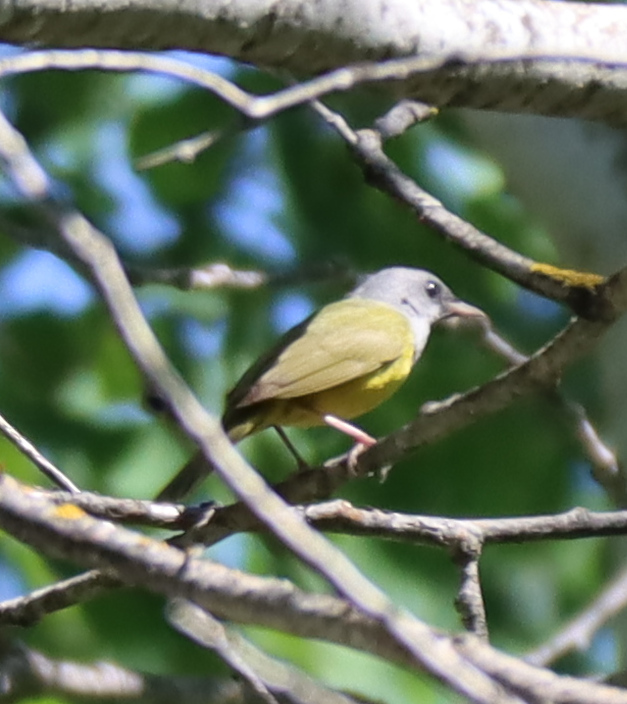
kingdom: Animalia
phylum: Chordata
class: Aves
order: Passeriformes
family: Parulidae
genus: Geothlypis
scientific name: Geothlypis philadelphia
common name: Mourning warbler
